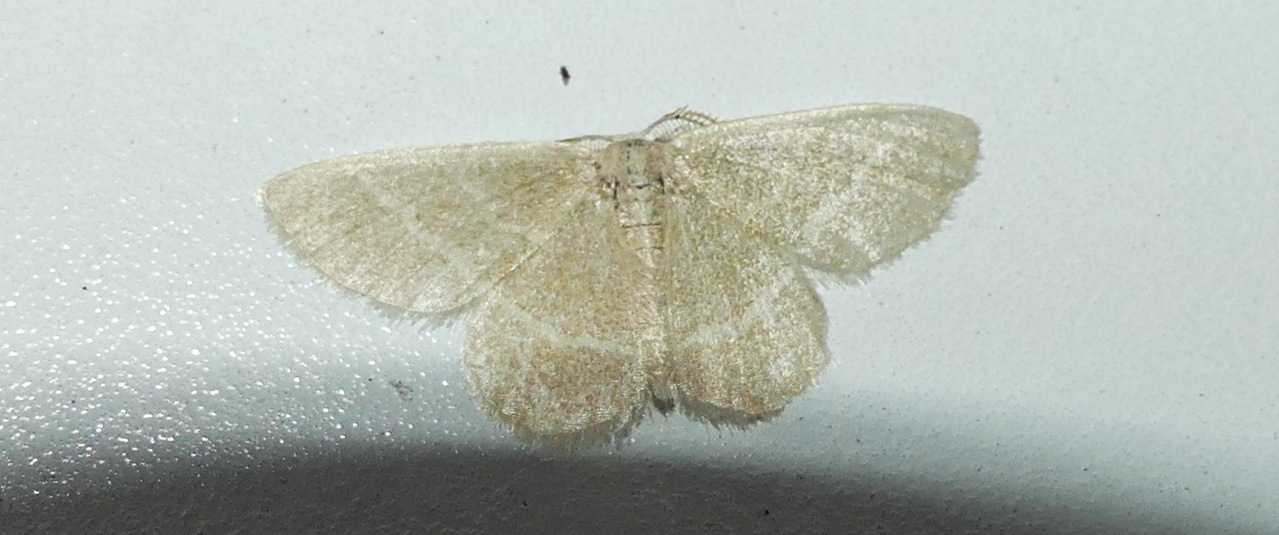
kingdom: Animalia
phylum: Arthropoda
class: Insecta
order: Lepidoptera
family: Geometridae
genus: Chlorochlamys
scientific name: Chlorochlamys chloroleucaria
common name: Blackberry looper
